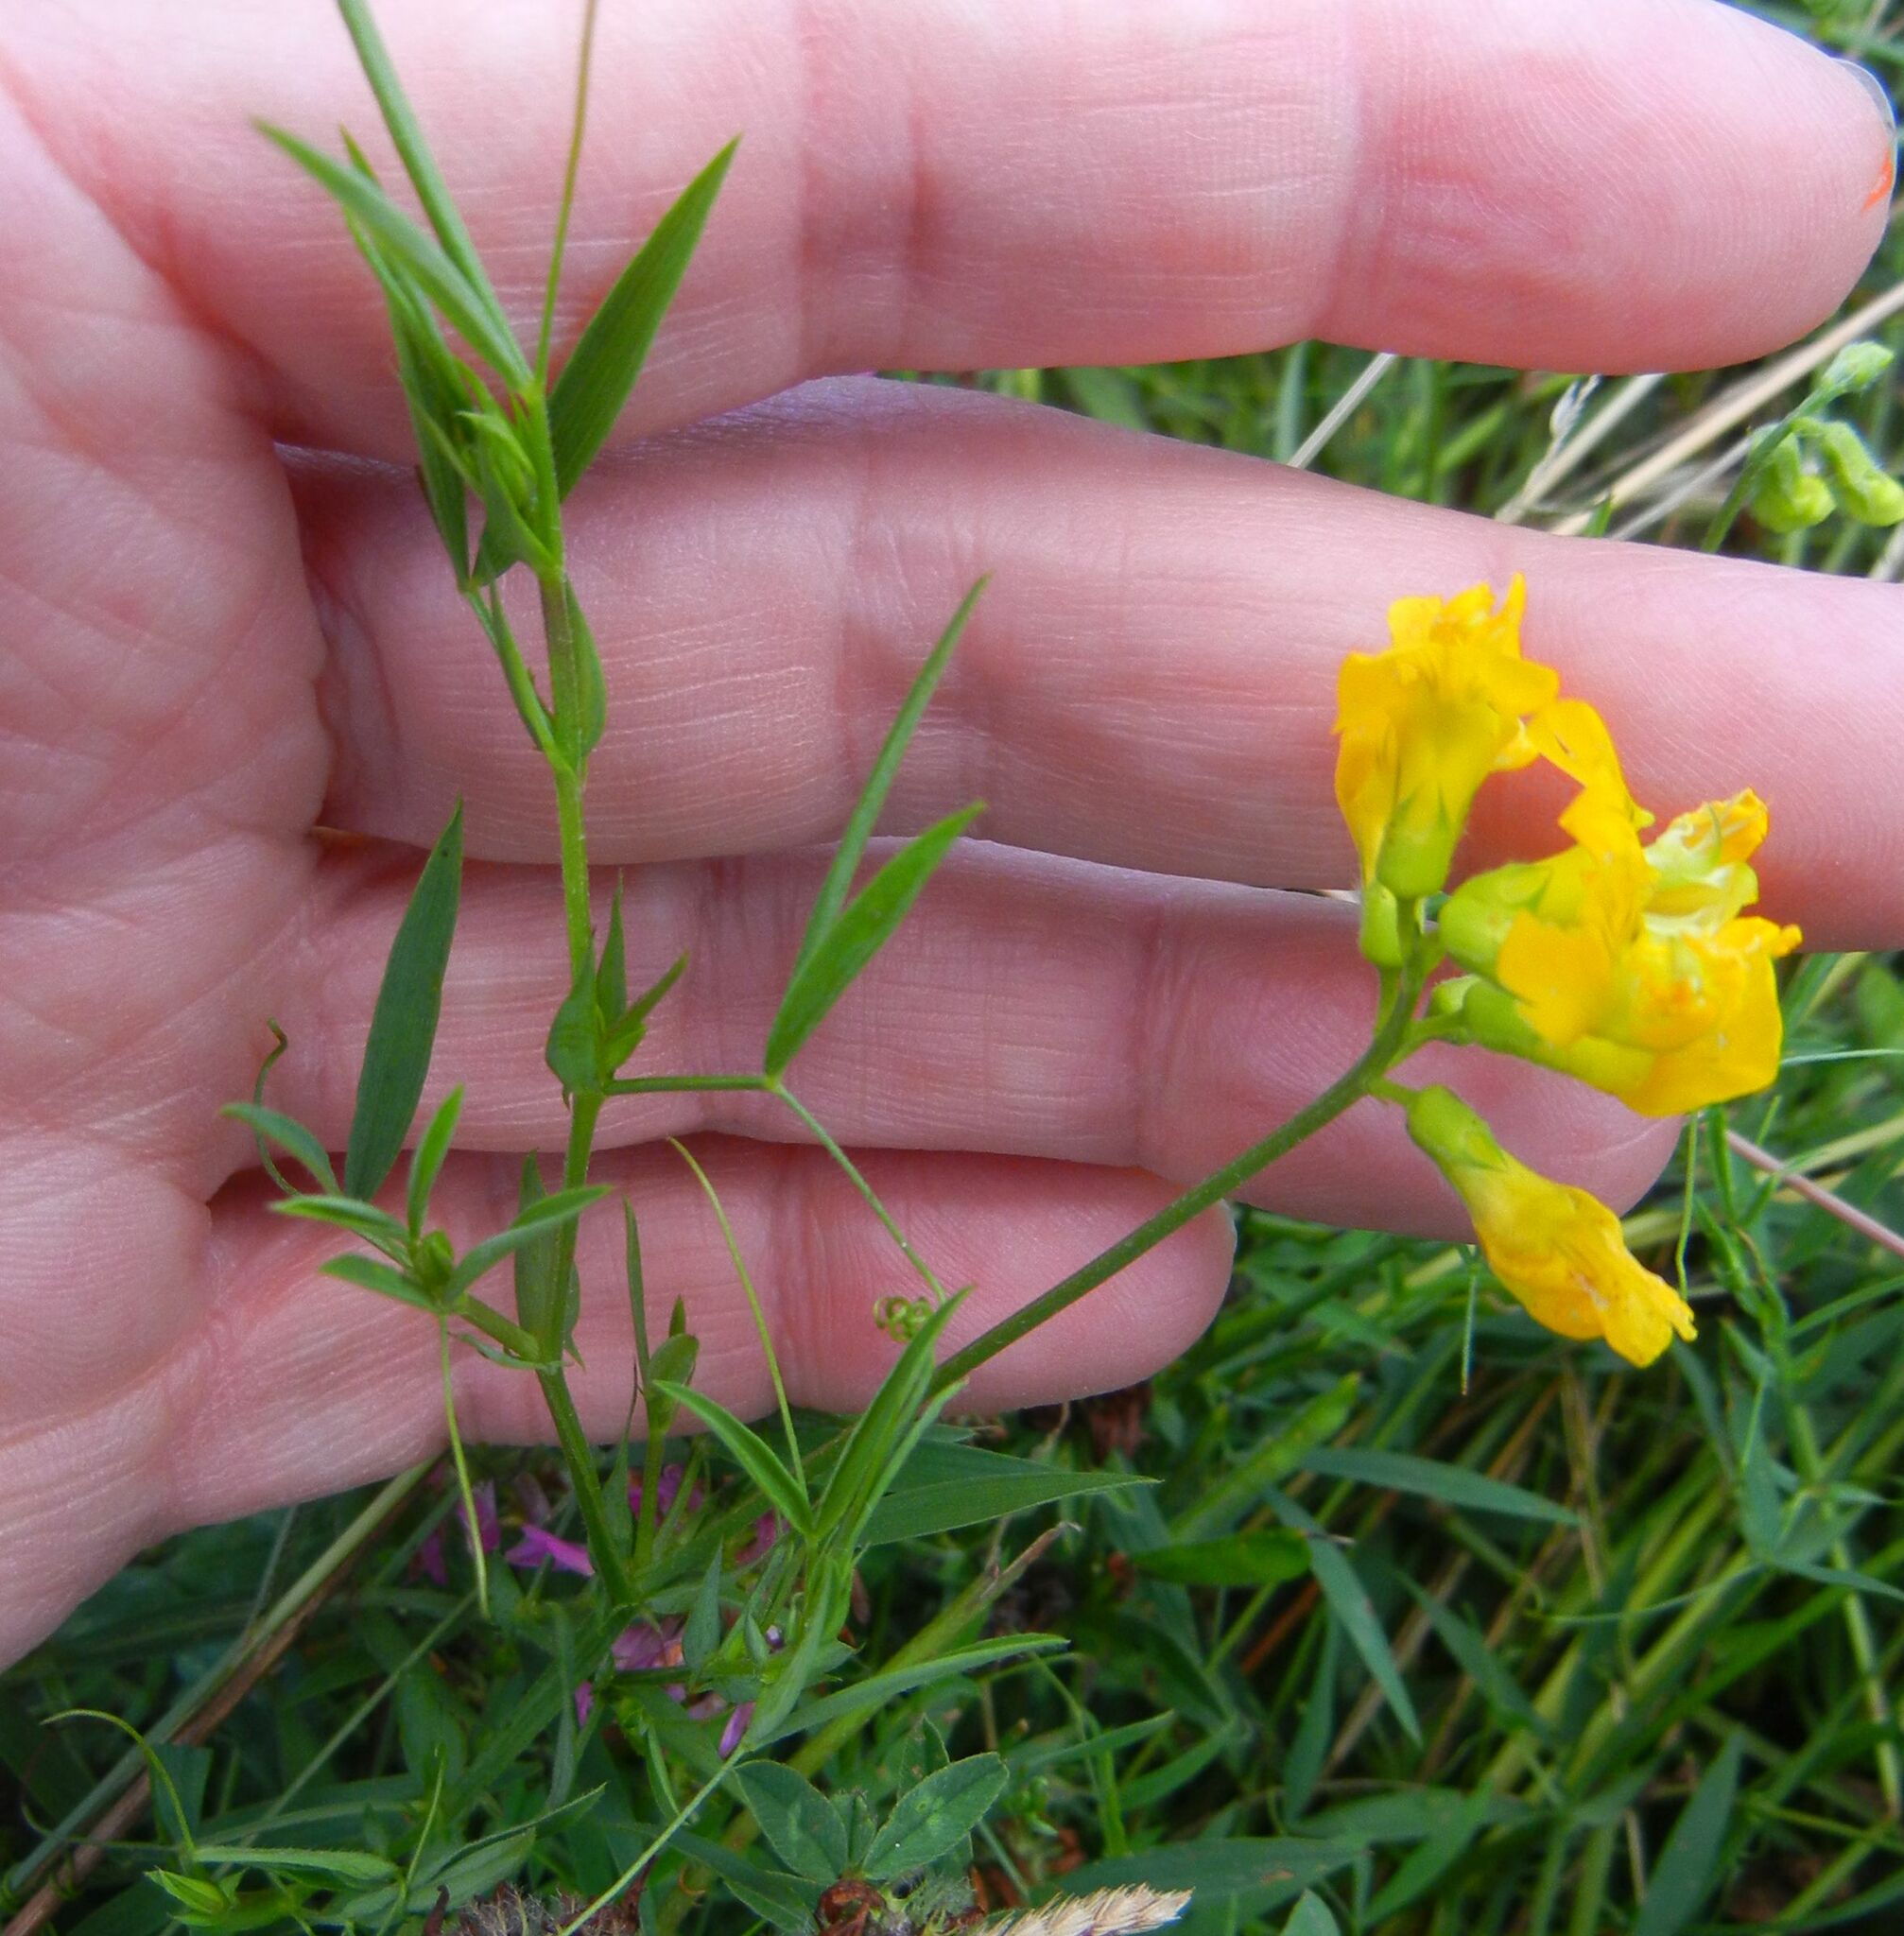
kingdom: Plantae
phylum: Tracheophyta
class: Magnoliopsida
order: Fabales
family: Fabaceae
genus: Lathyrus
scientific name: Lathyrus pratensis
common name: Meadow vetchling
